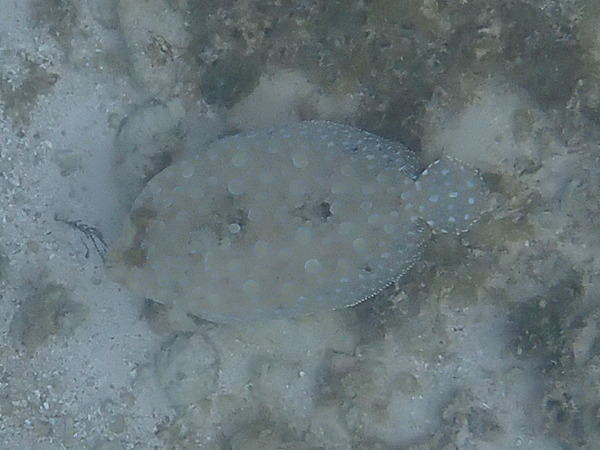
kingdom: Animalia
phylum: Chordata
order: Pleuronectiformes
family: Bothidae
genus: Bothus
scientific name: Bothus lunatus
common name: Peacock flounder
